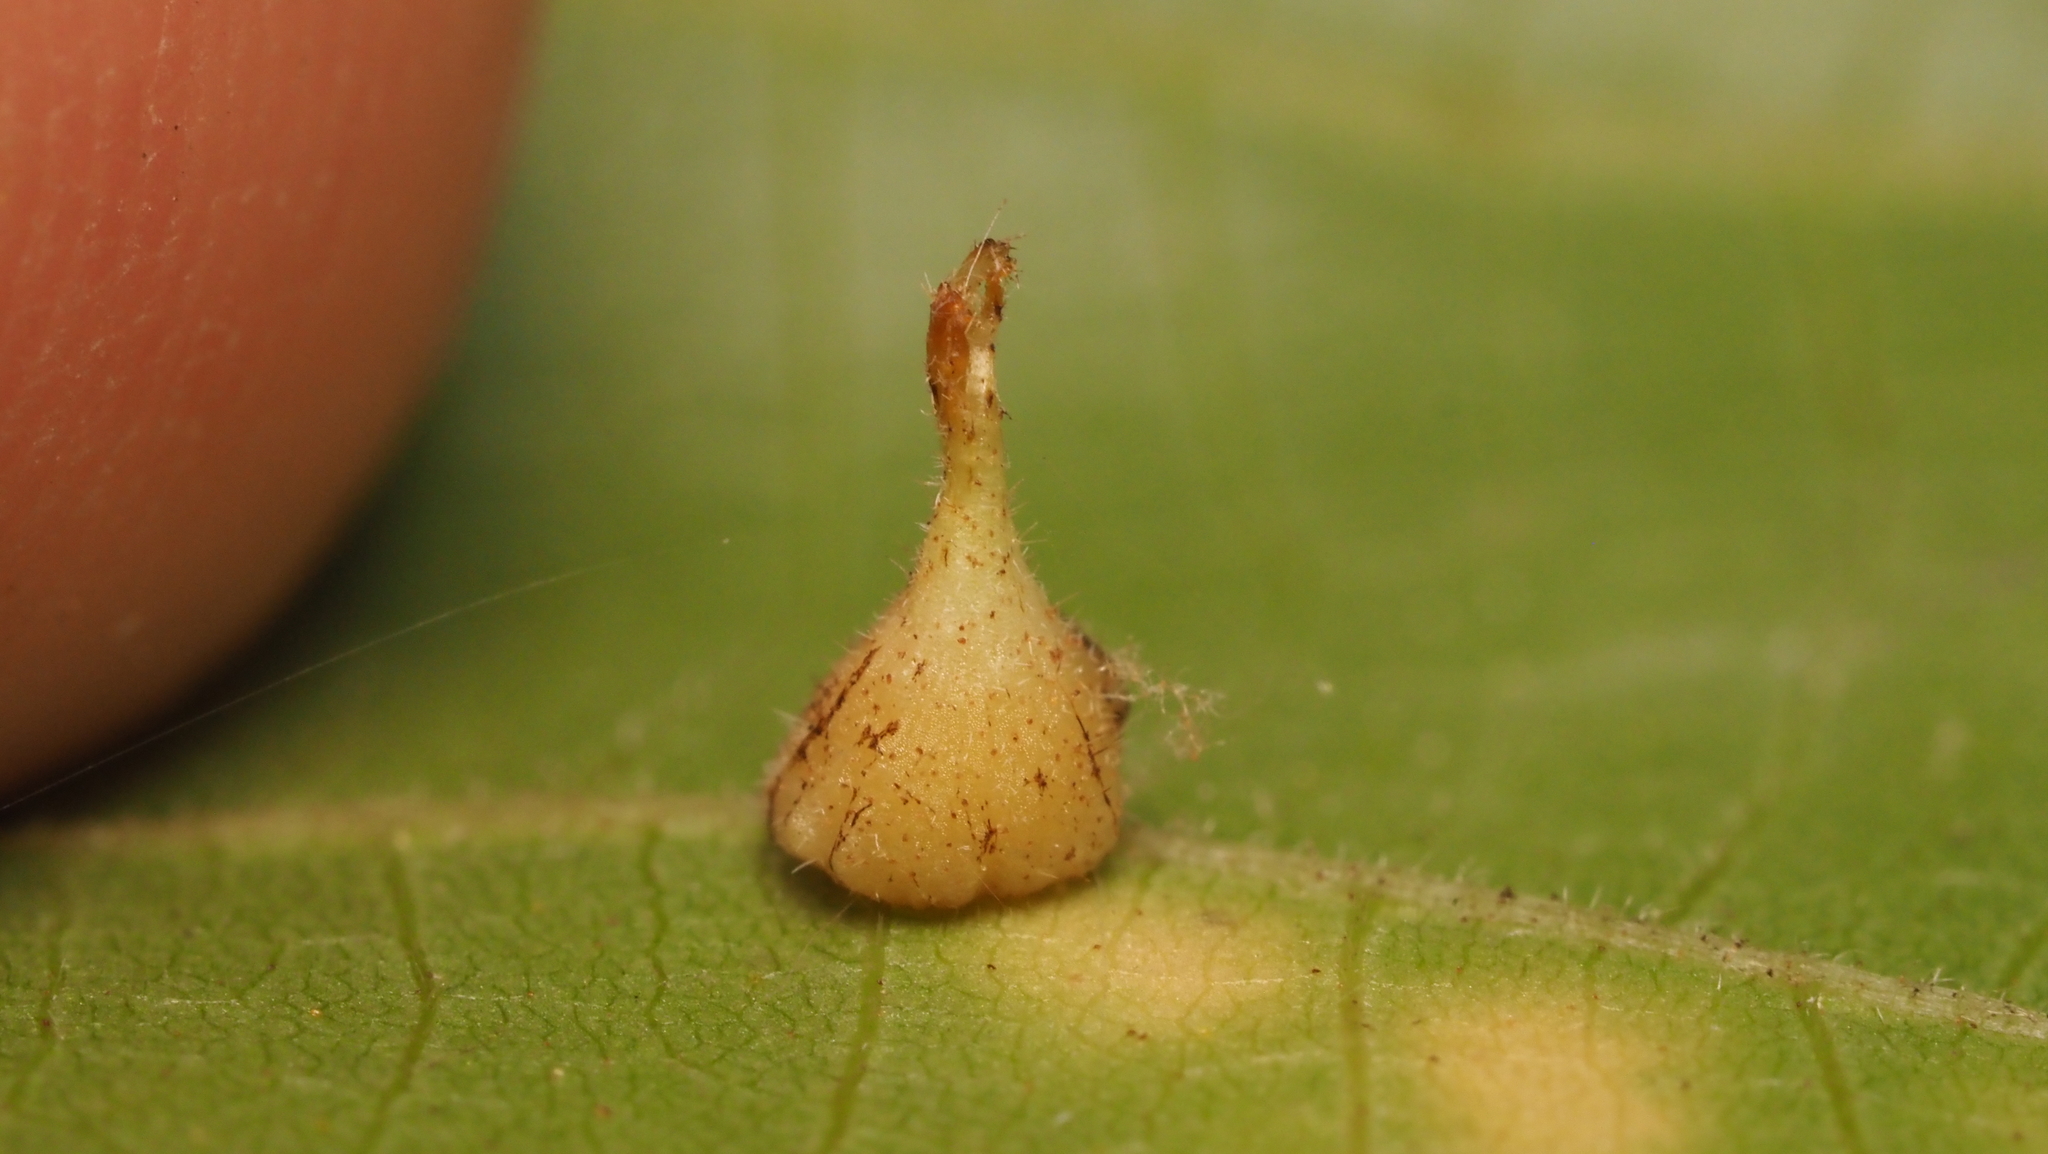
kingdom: Animalia
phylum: Arthropoda
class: Insecta
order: Diptera
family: Cecidomyiidae
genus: Caryomyia
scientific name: Caryomyia inclinata
